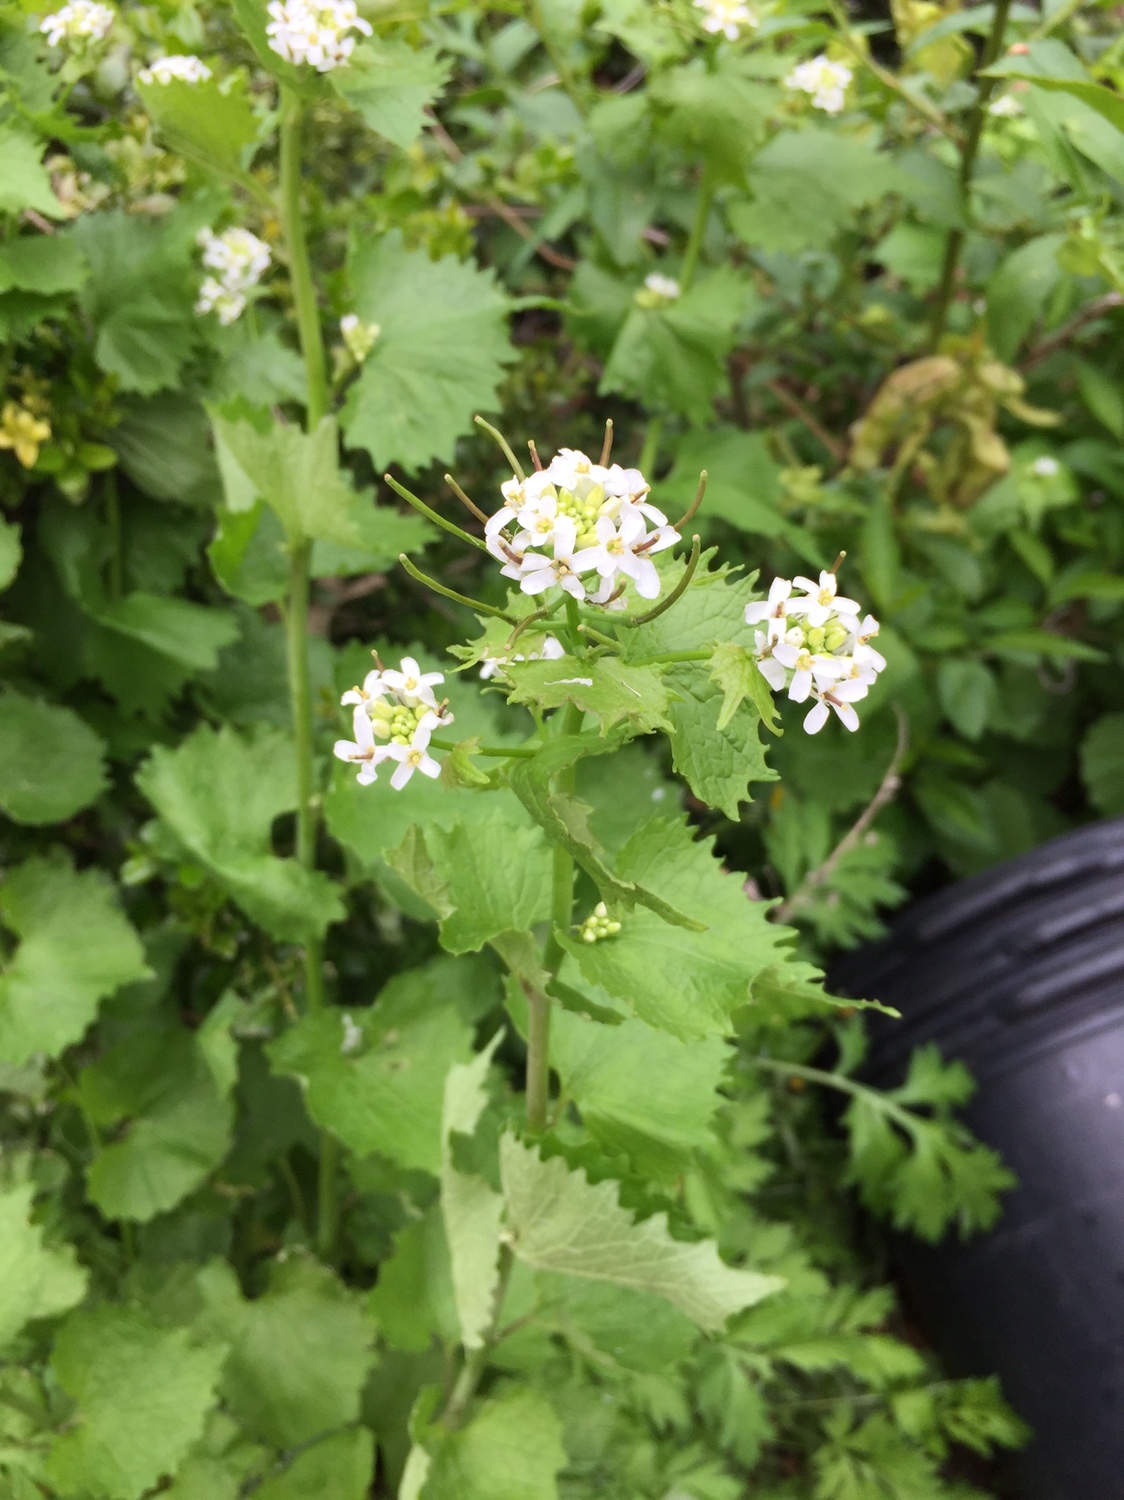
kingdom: Plantae
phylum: Tracheophyta
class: Magnoliopsida
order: Brassicales
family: Brassicaceae
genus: Alliaria
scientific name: Alliaria petiolata
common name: Garlic mustard
